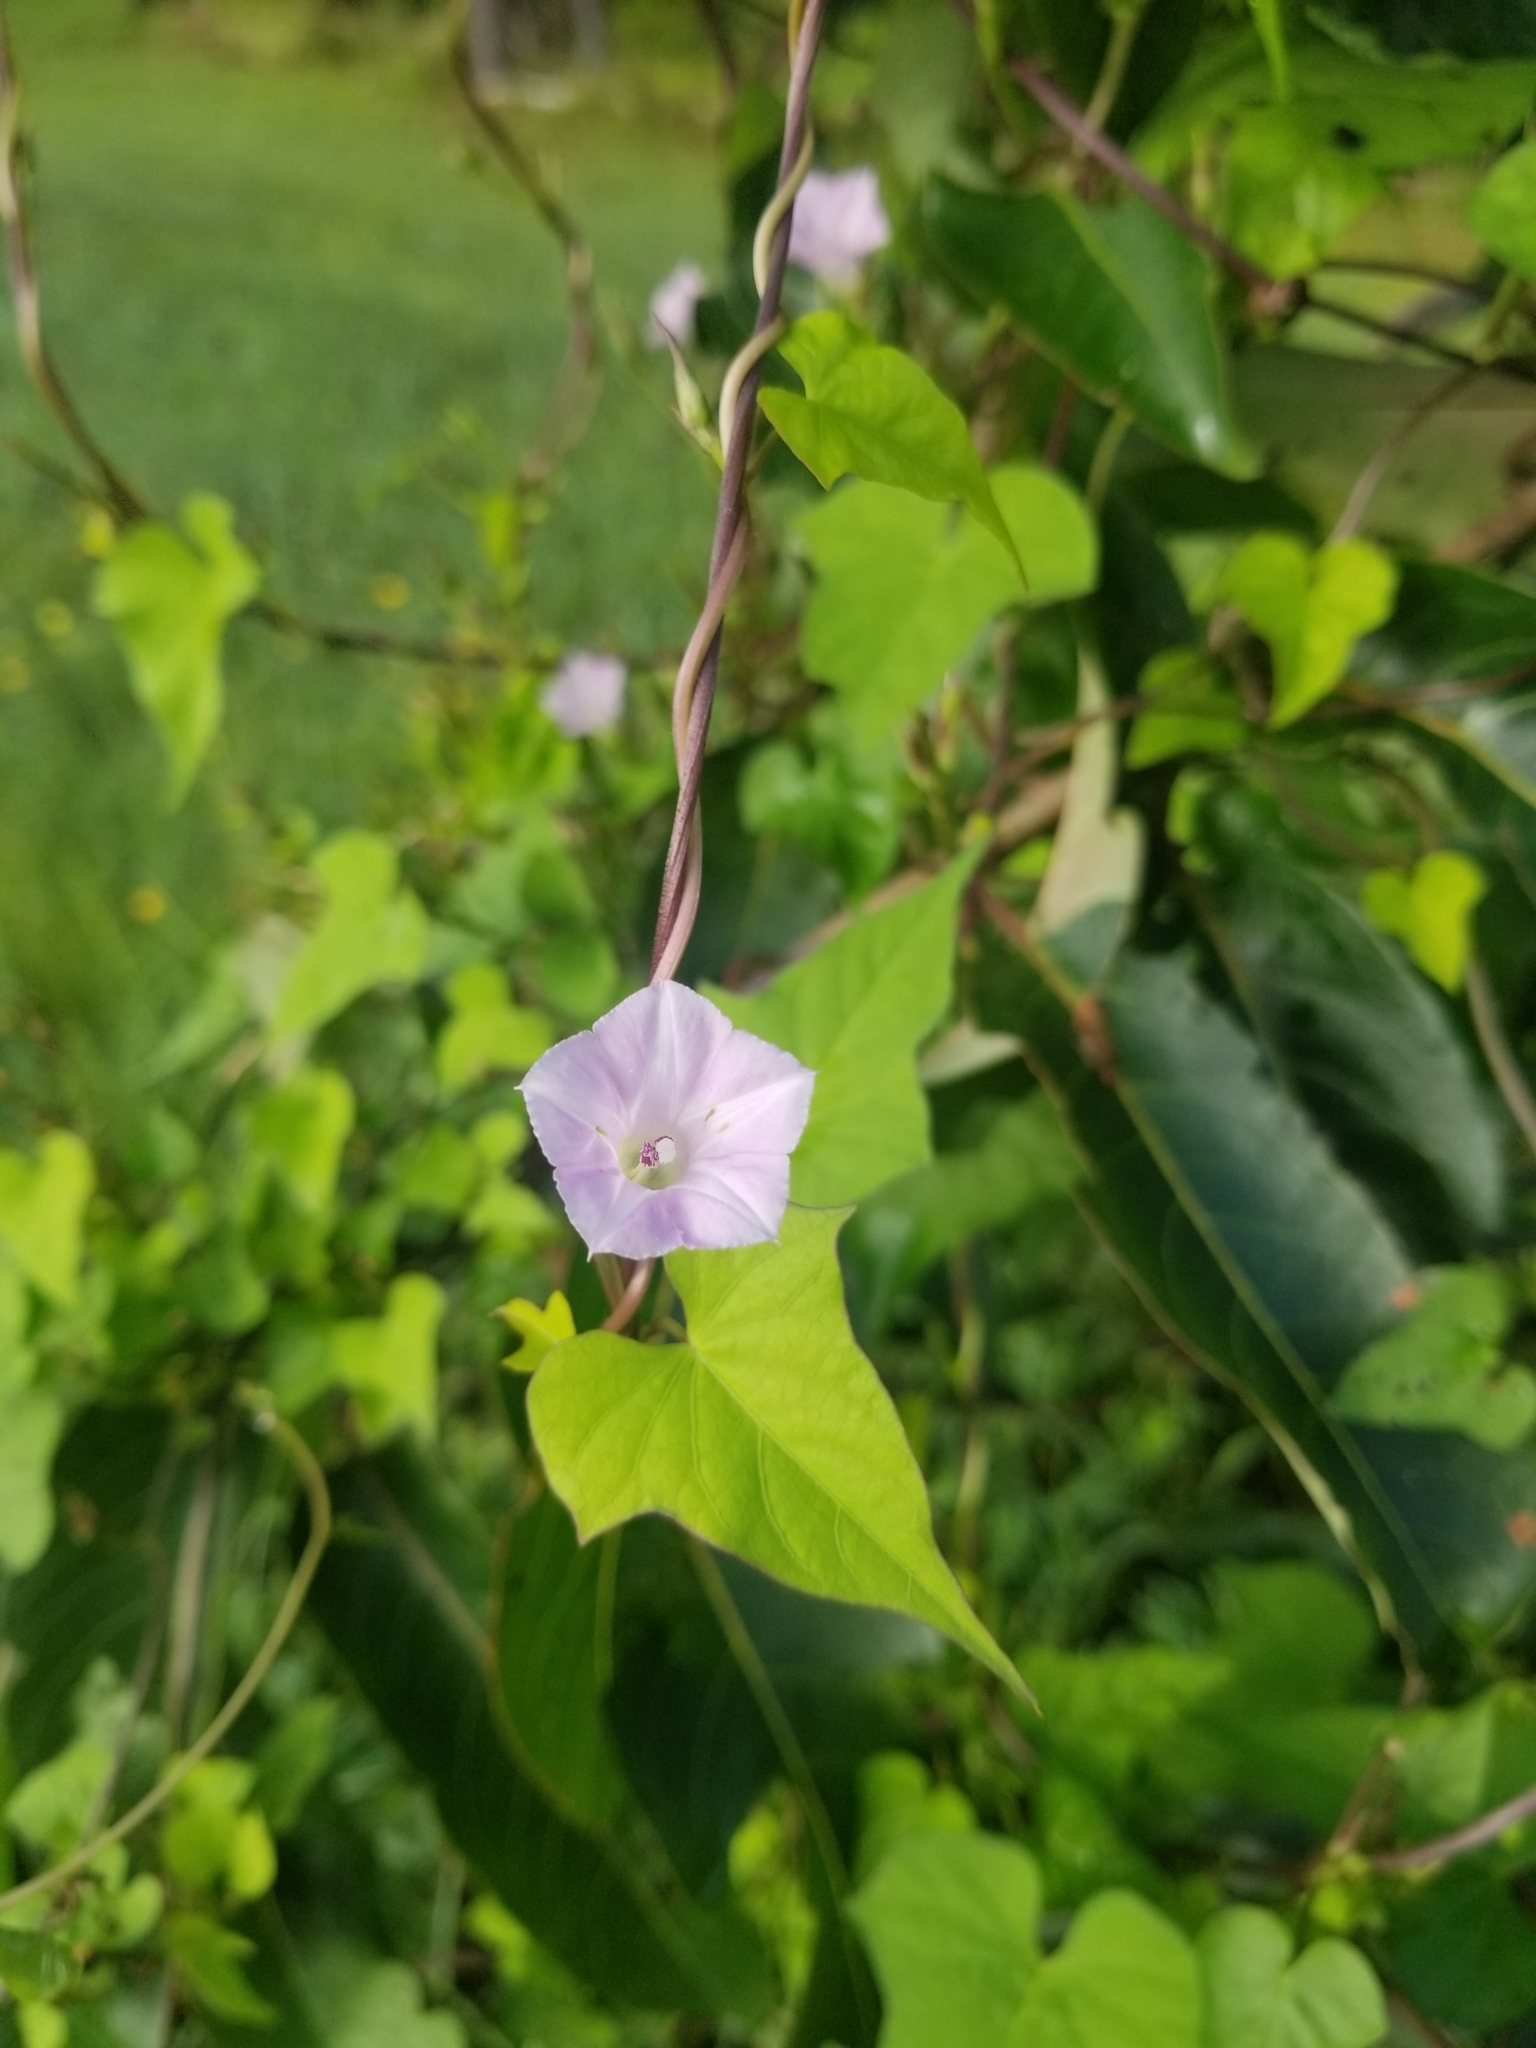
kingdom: Plantae
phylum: Tracheophyta
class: Magnoliopsida
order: Solanales
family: Convolvulaceae
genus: Ipomoea
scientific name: Ipomoea lacunosa
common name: White morning-glory
